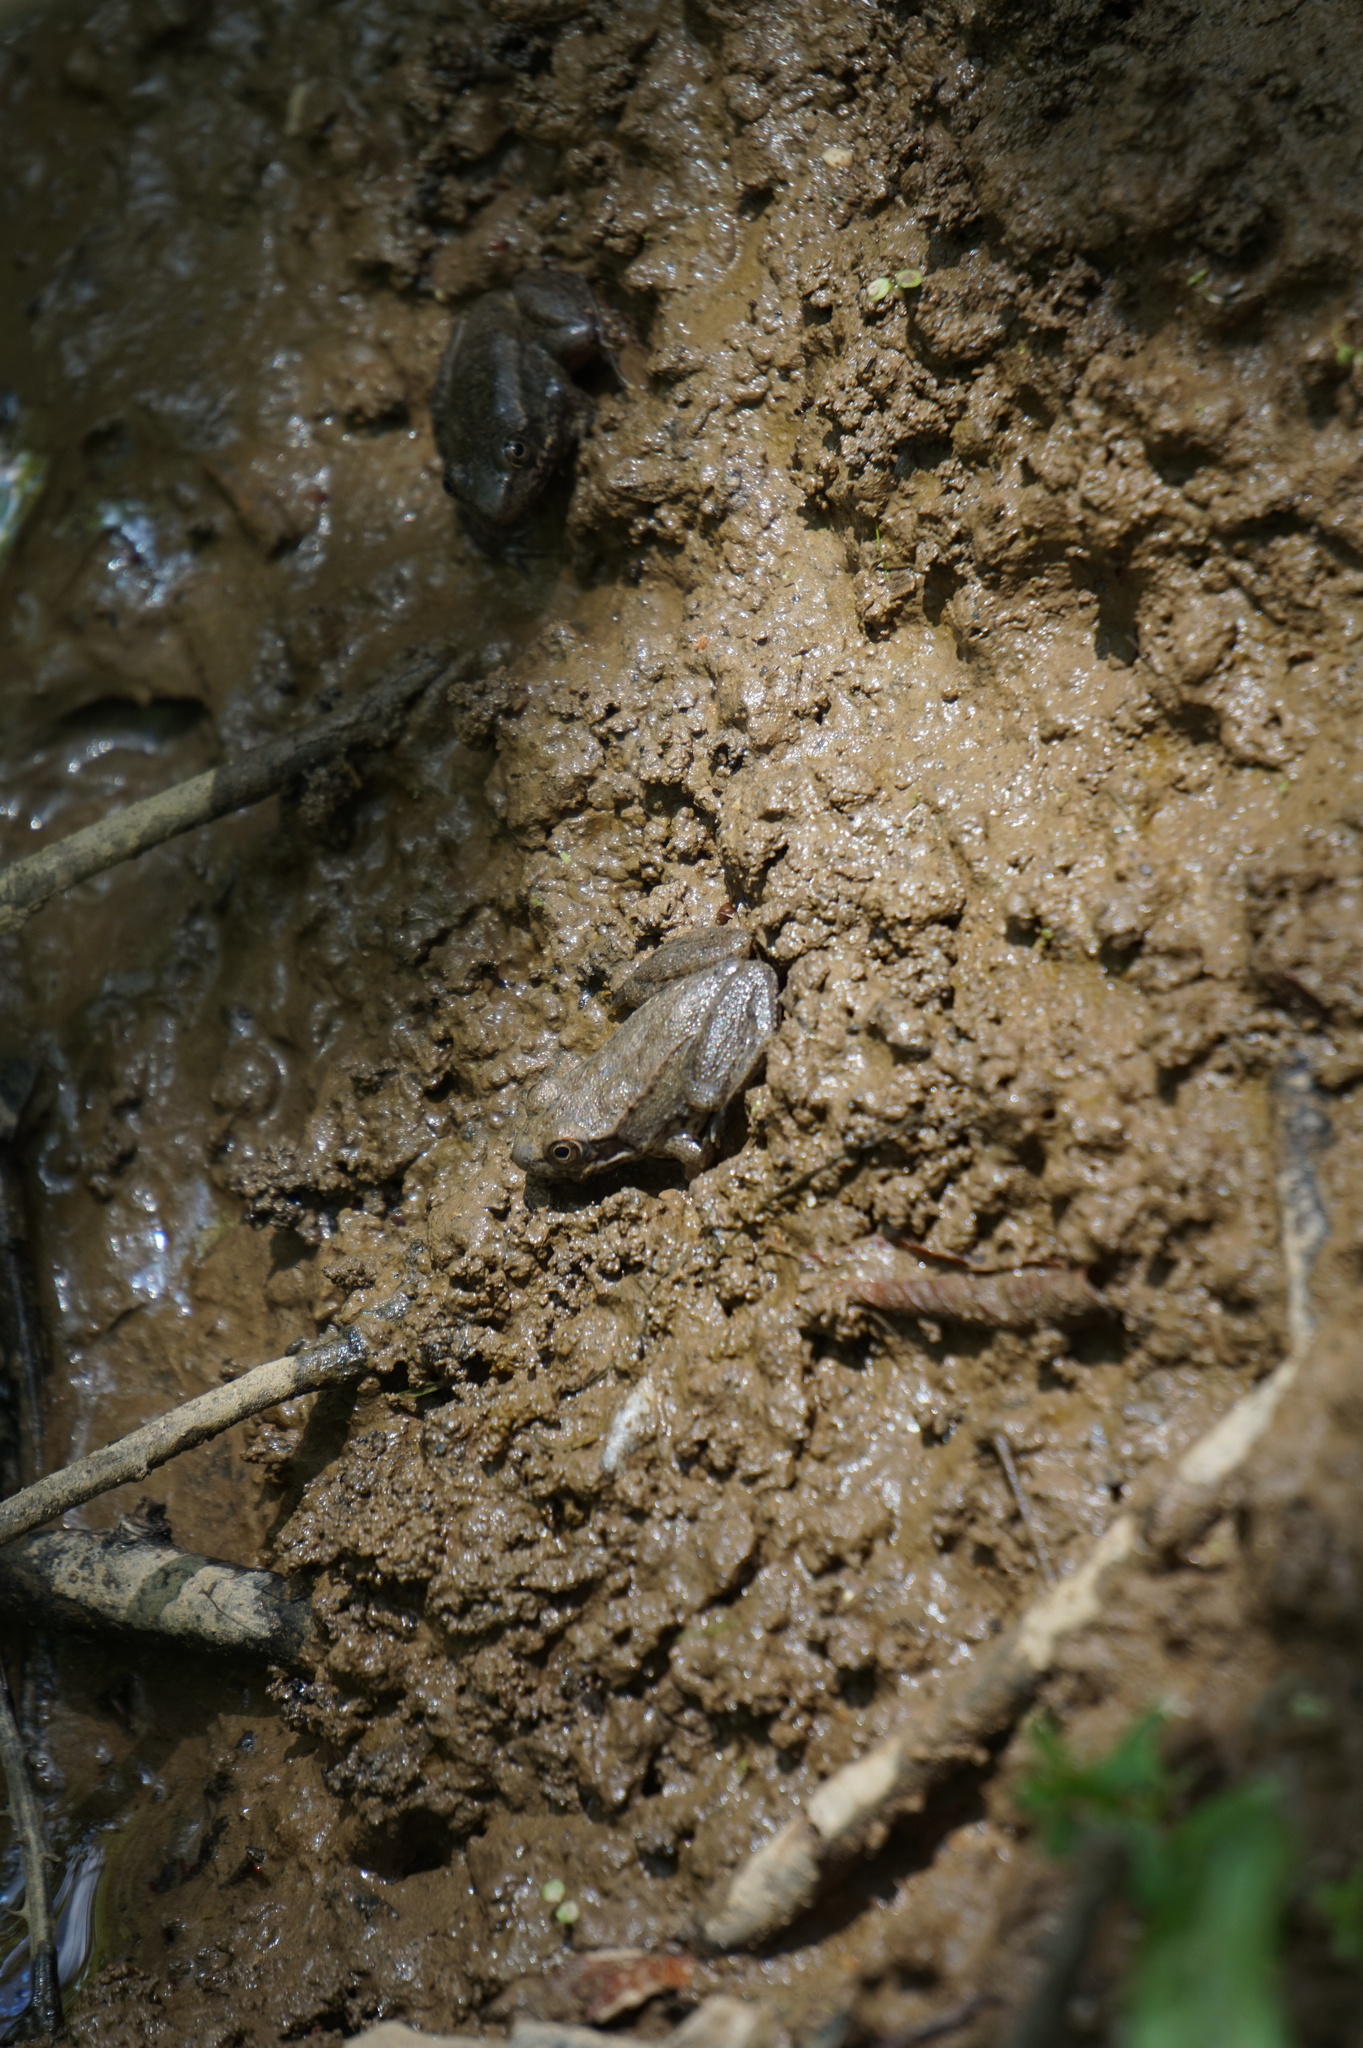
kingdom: Animalia
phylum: Chordata
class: Amphibia
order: Anura
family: Ranidae
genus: Lithobates
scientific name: Lithobates clamitans
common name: Green frog
